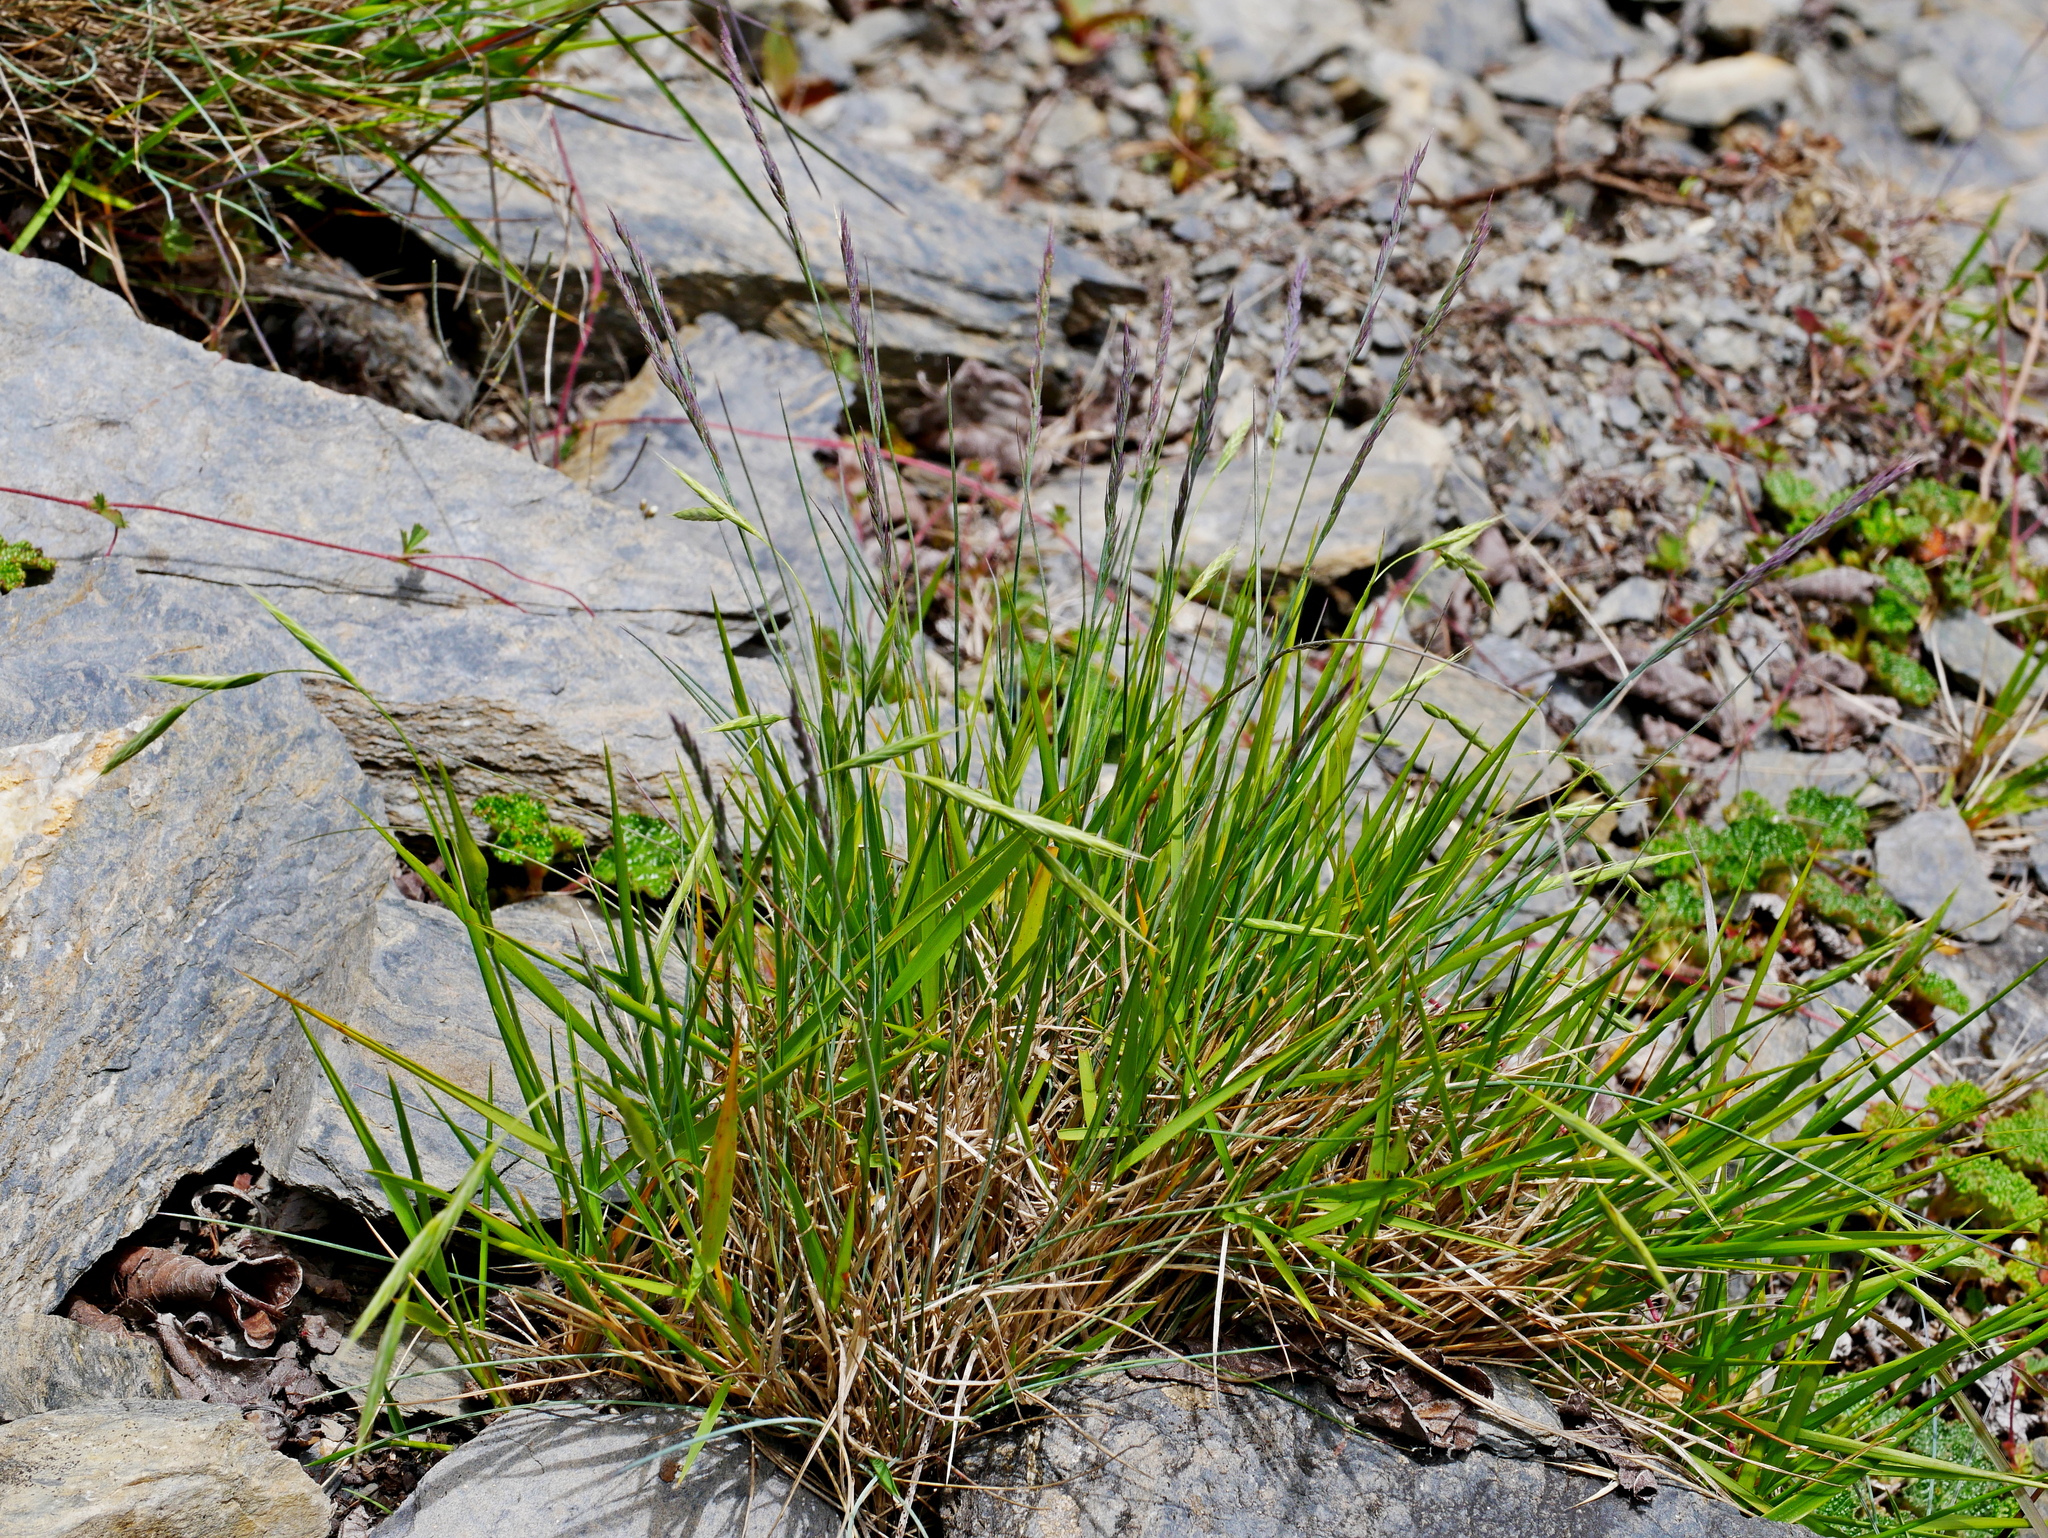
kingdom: Plantae
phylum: Tracheophyta
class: Liliopsida
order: Poales
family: Poaceae
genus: Festuca
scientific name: Festuca ovina
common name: Sheep fescue
